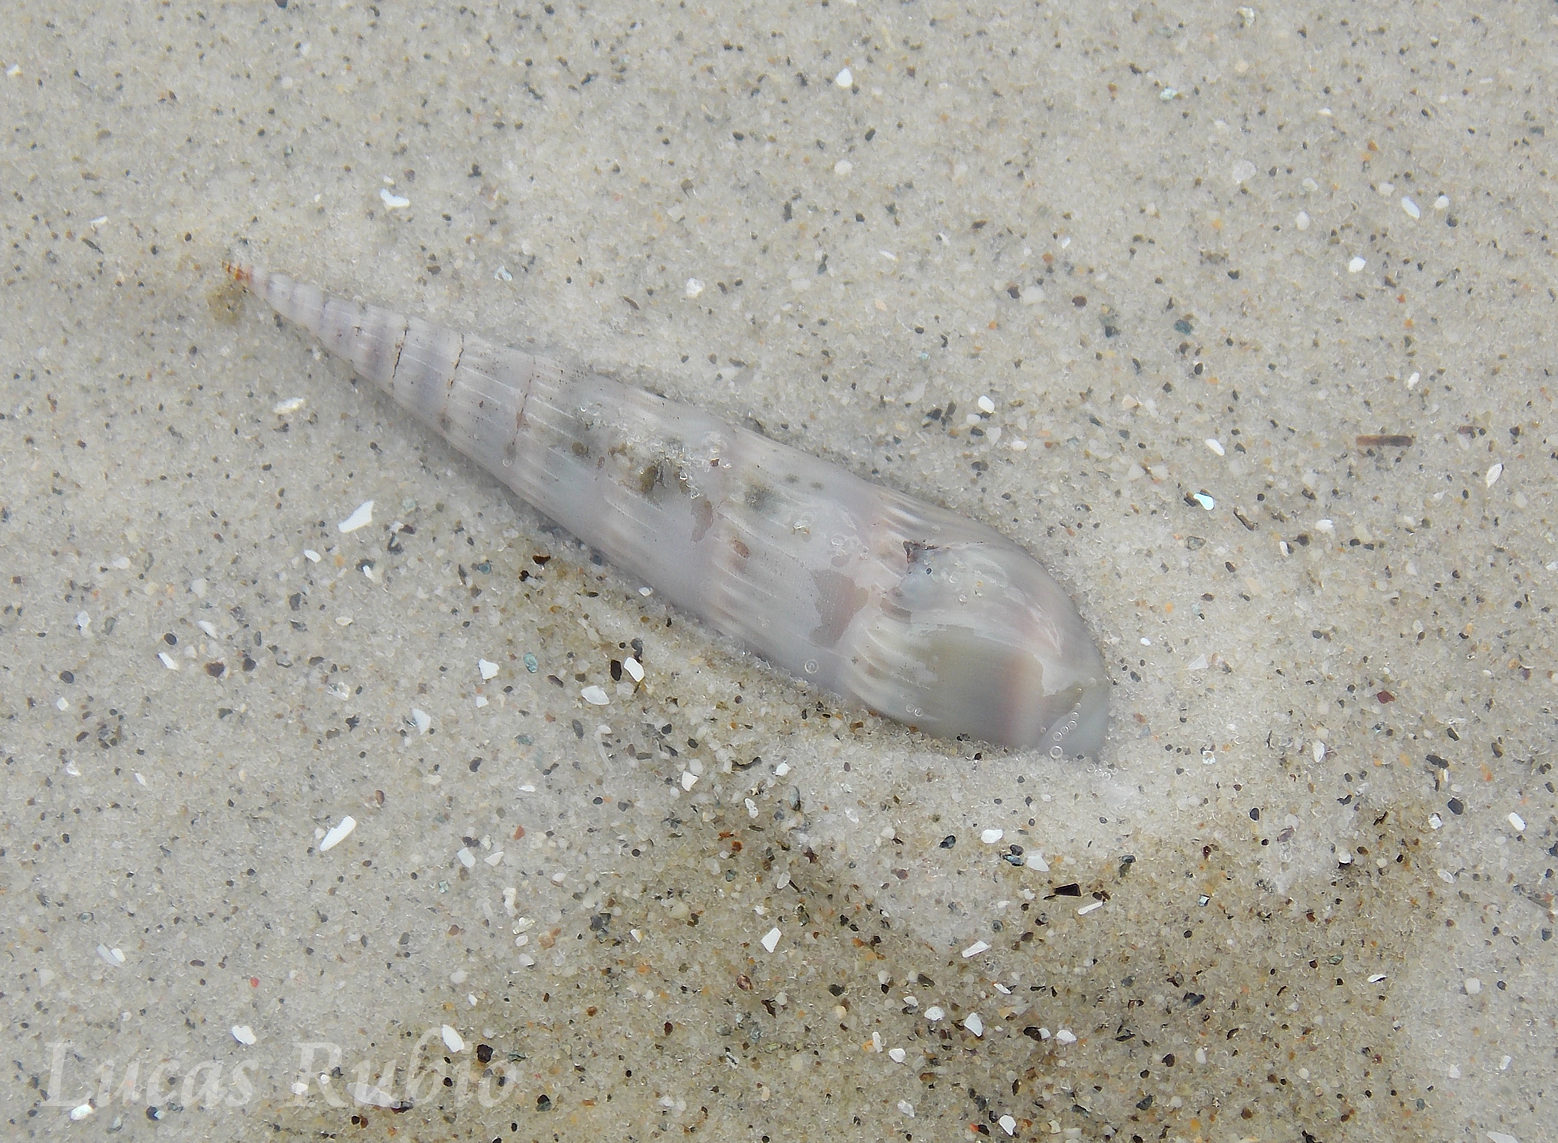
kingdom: Animalia
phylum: Mollusca
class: Gastropoda
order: Neogastropoda
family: Terebridae
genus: Hastula
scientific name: Hastula cinerea
